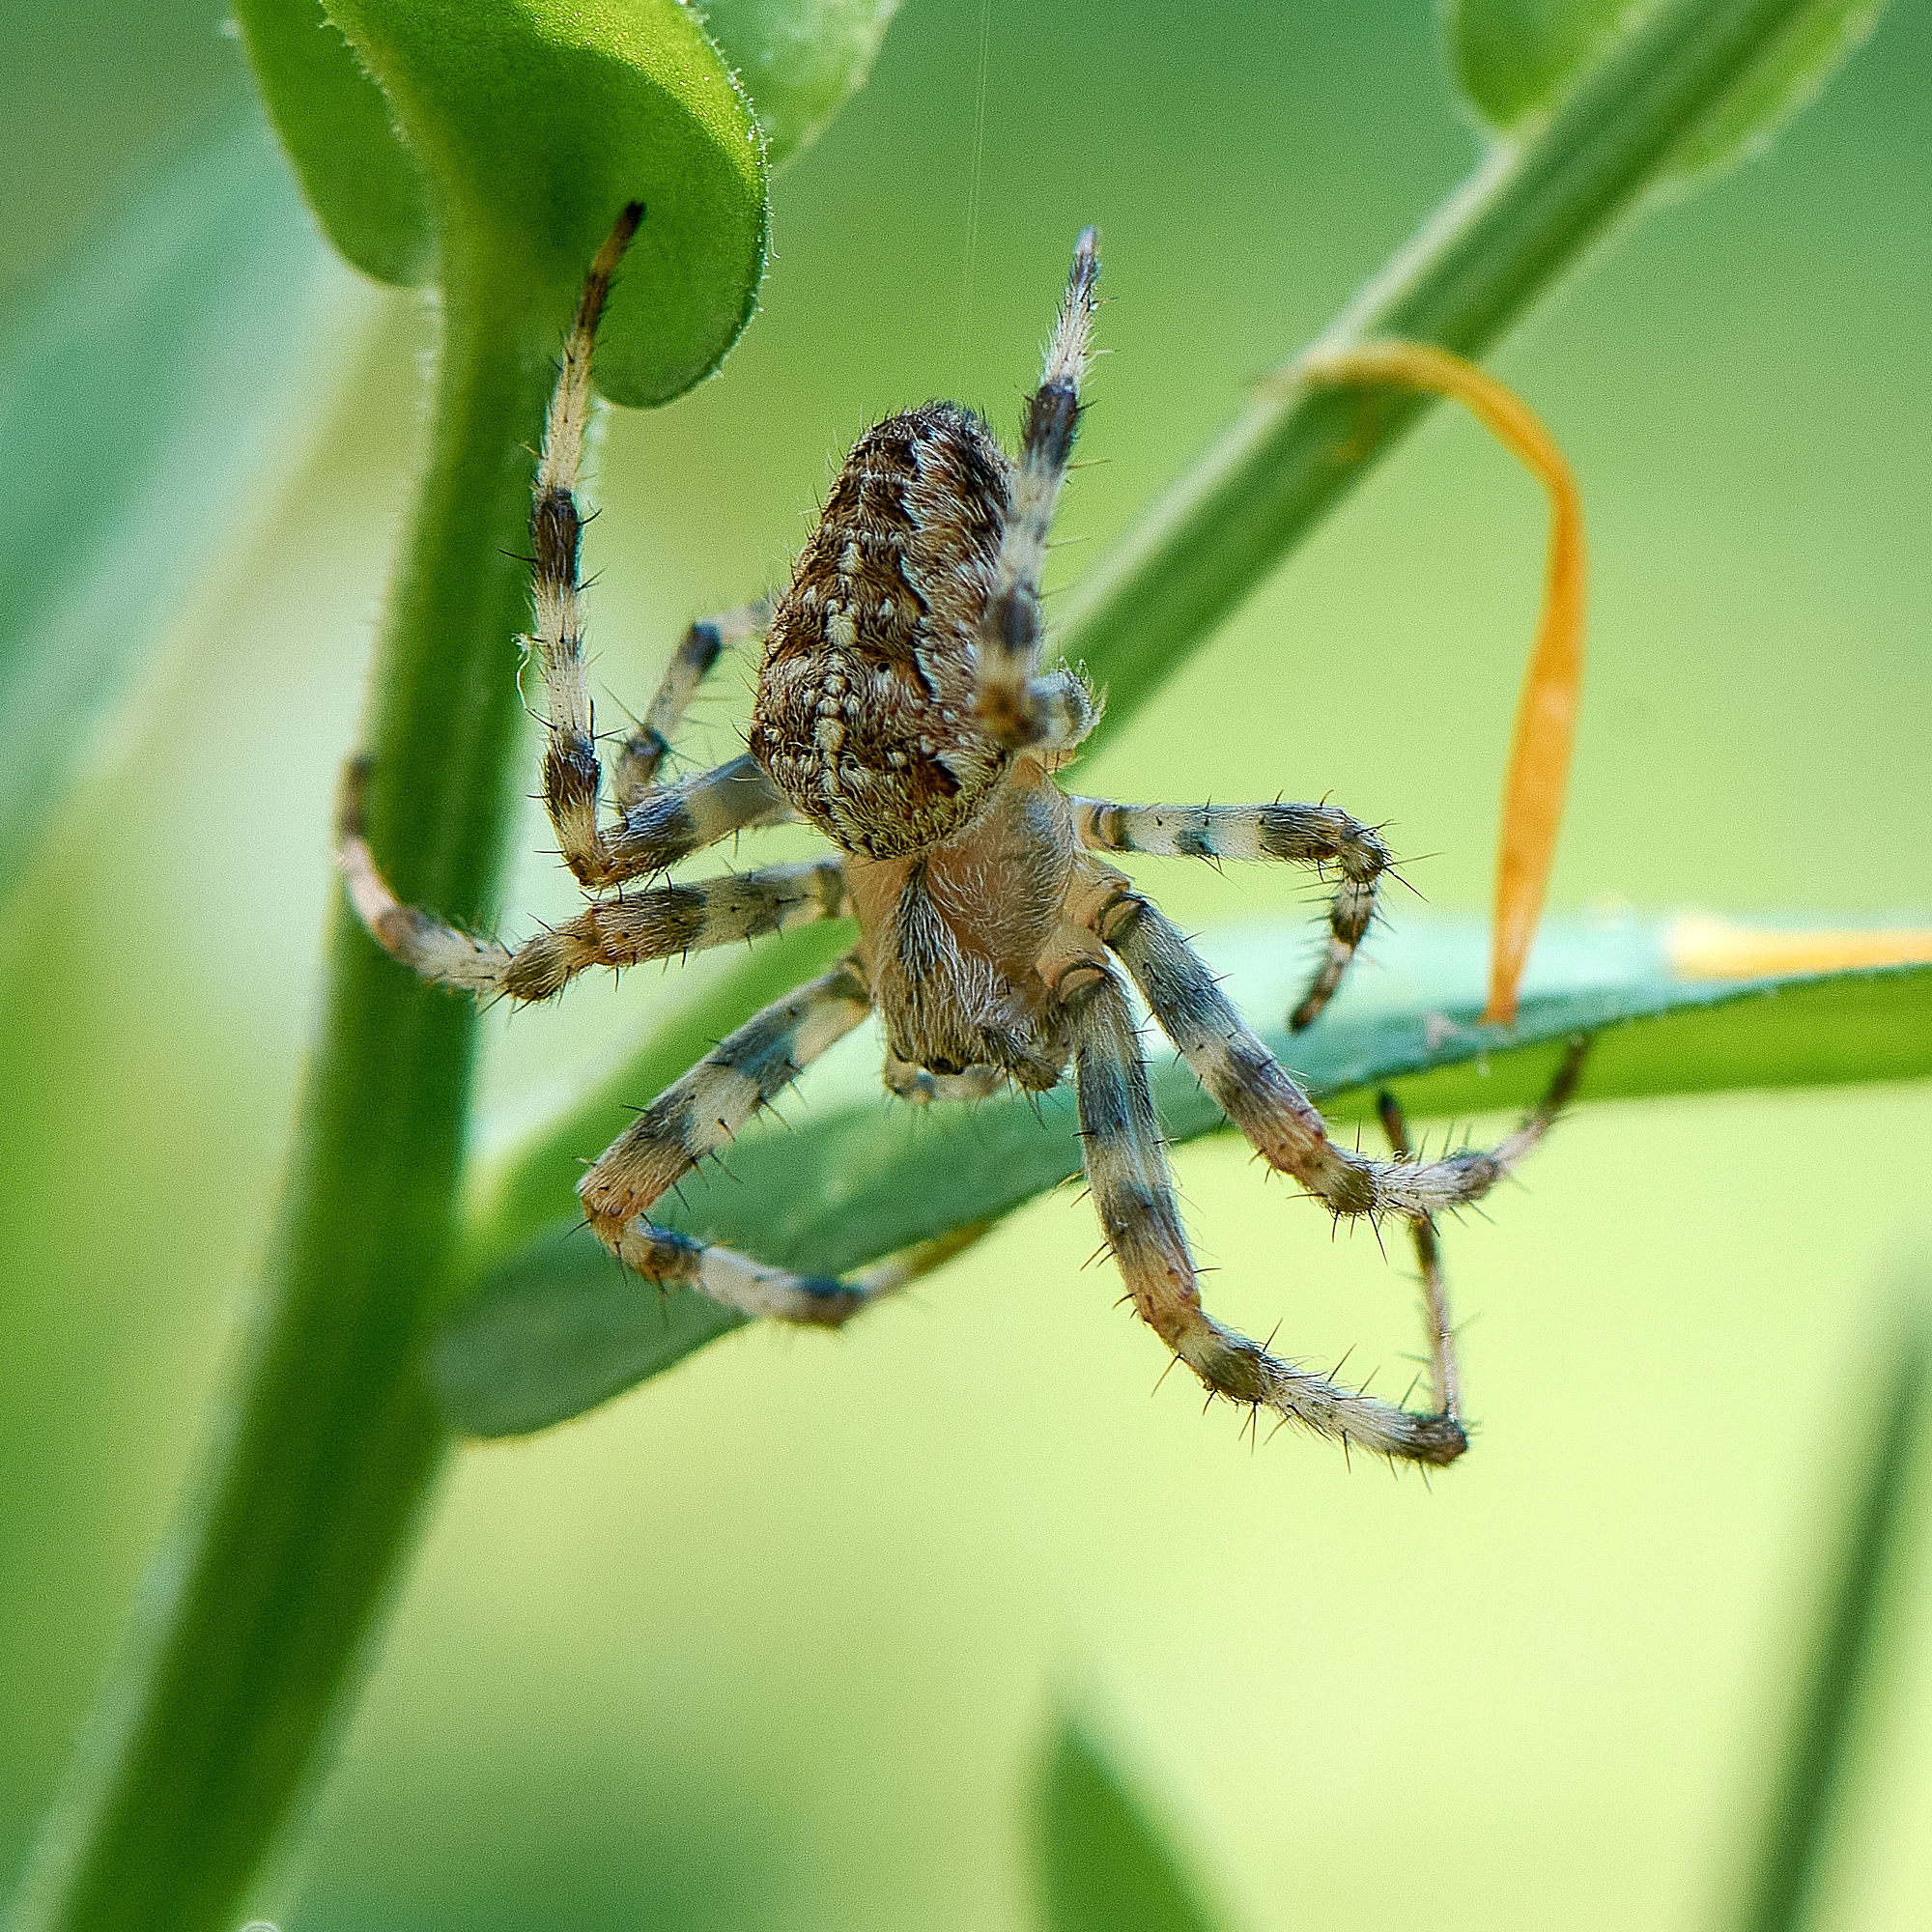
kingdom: Animalia
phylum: Arthropoda
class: Arachnida
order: Araneae
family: Araneidae
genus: Araneus
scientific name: Araneus diadematus
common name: Cross orbweaver
